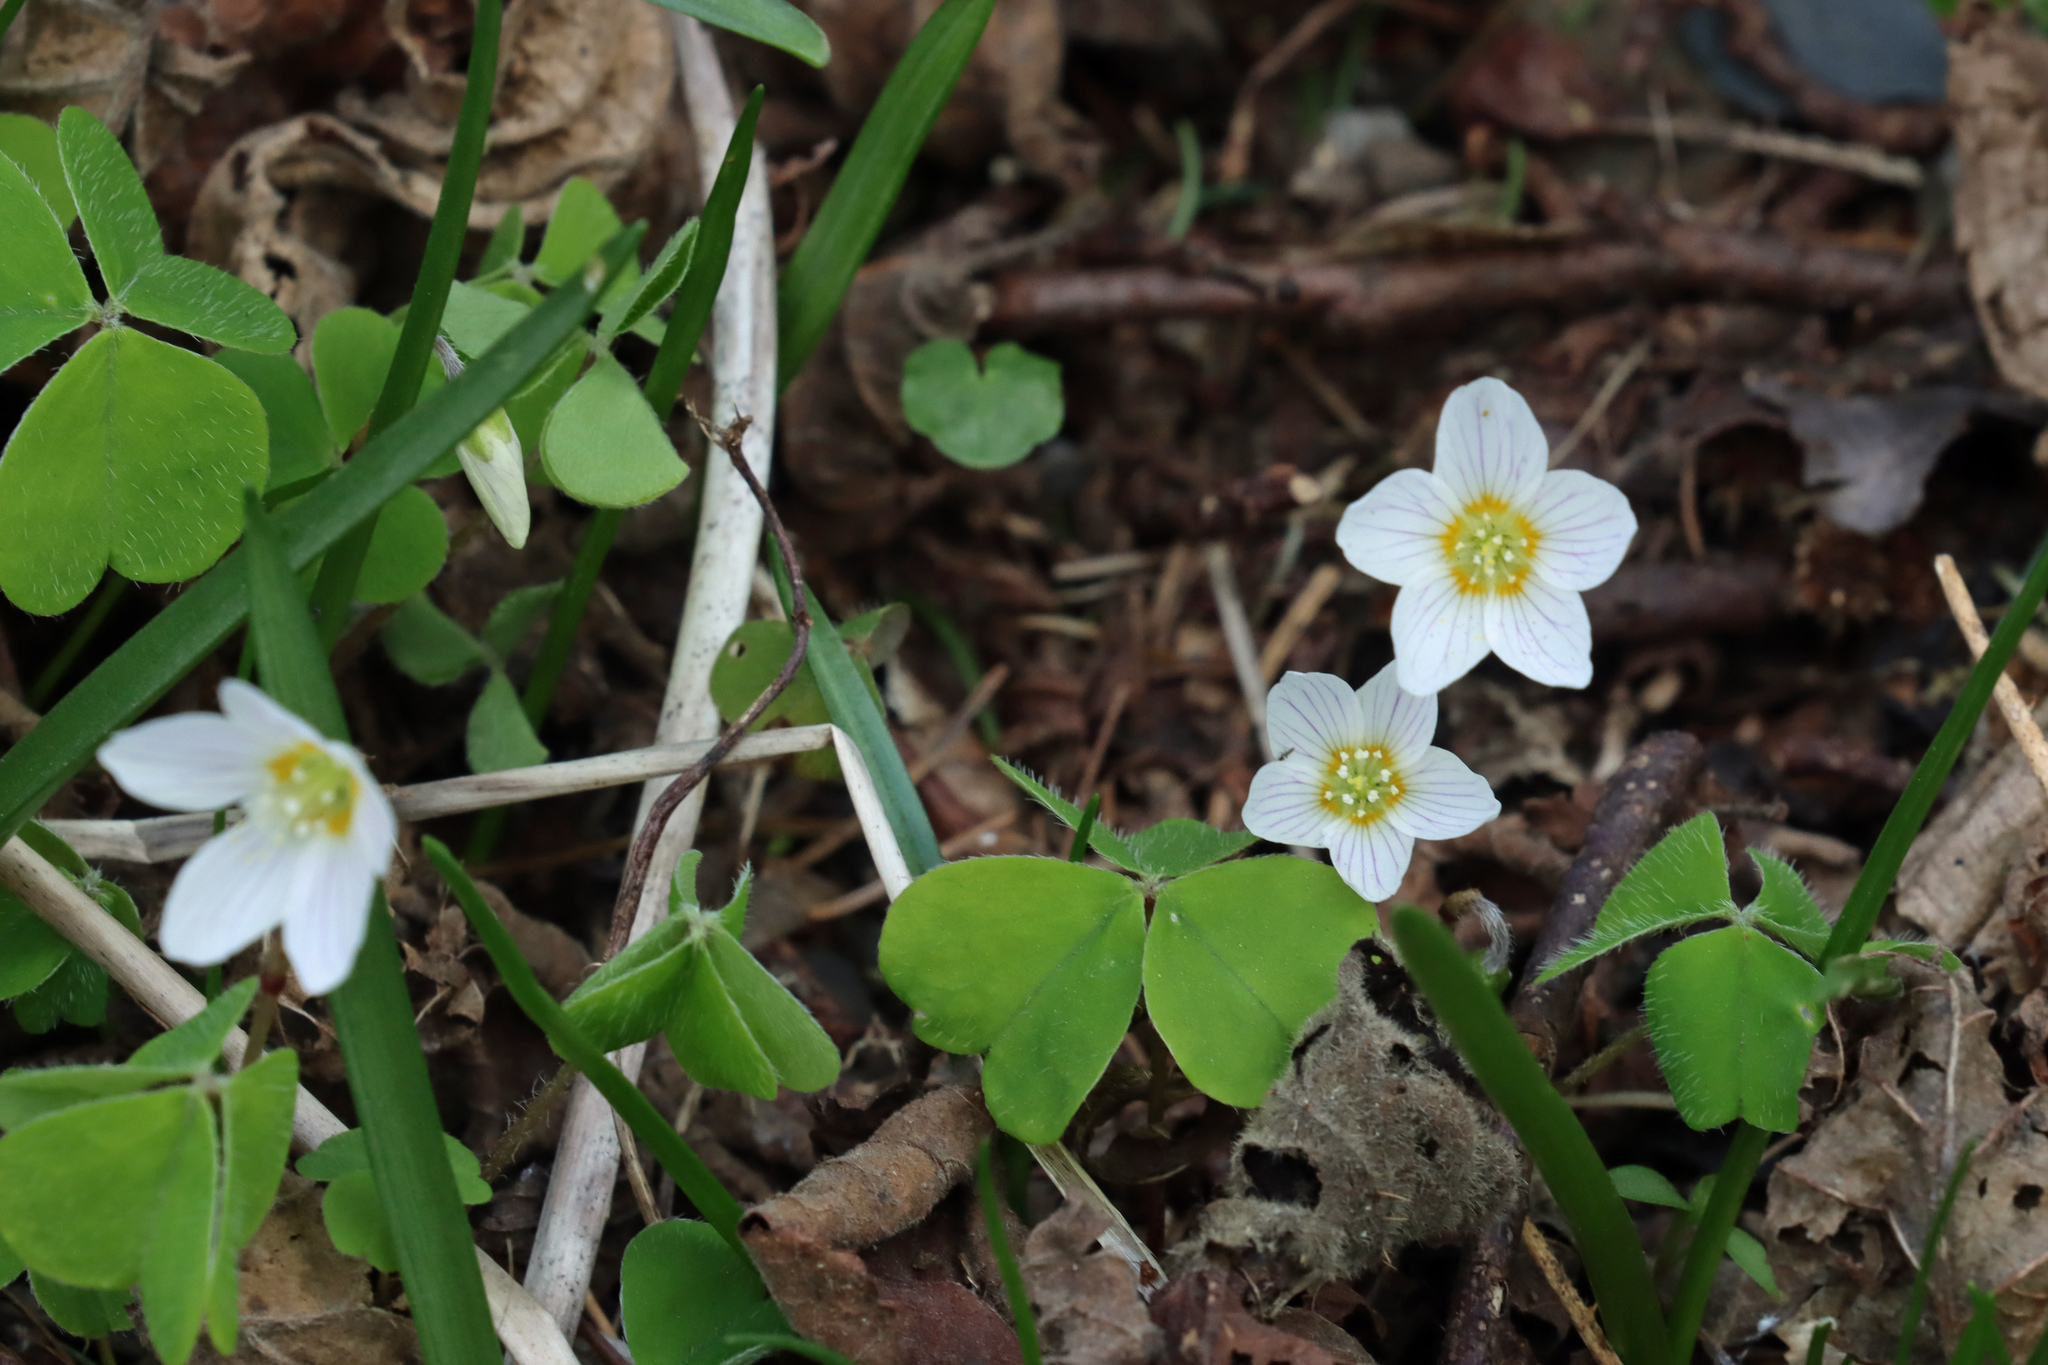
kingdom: Plantae
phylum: Tracheophyta
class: Magnoliopsida
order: Oxalidales
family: Oxalidaceae
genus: Oxalis
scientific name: Oxalis acetosella
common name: Wood-sorrel
